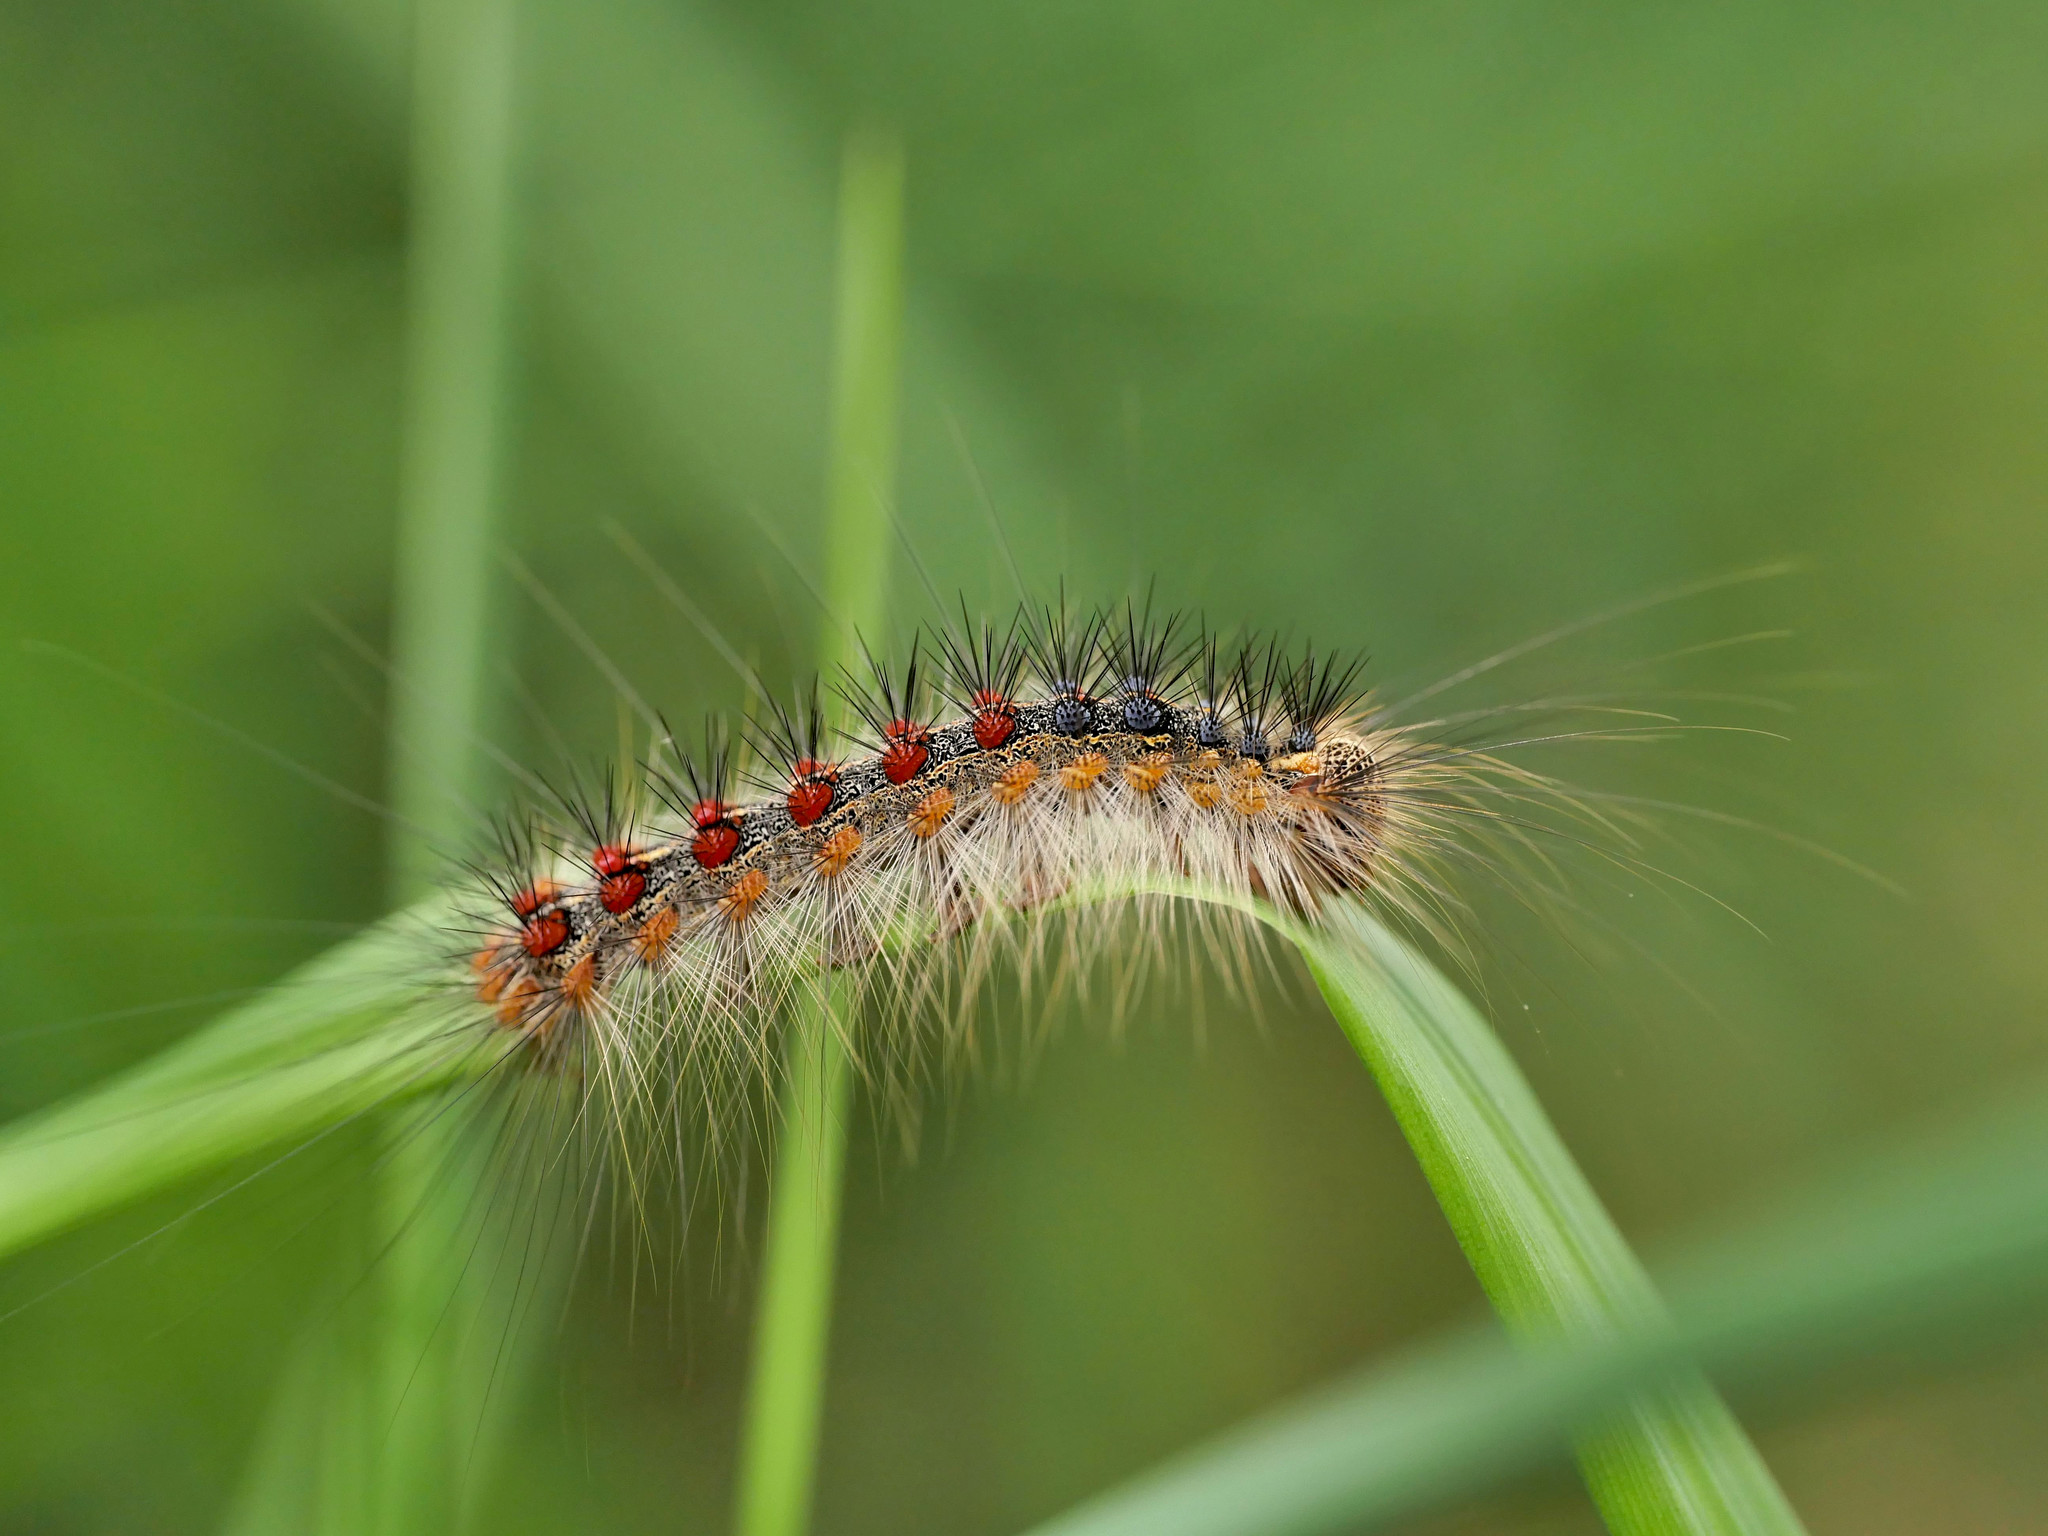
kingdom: Animalia
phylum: Arthropoda
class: Insecta
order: Lepidoptera
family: Erebidae
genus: Lymantria
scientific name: Lymantria dispar
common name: Gypsy moth
